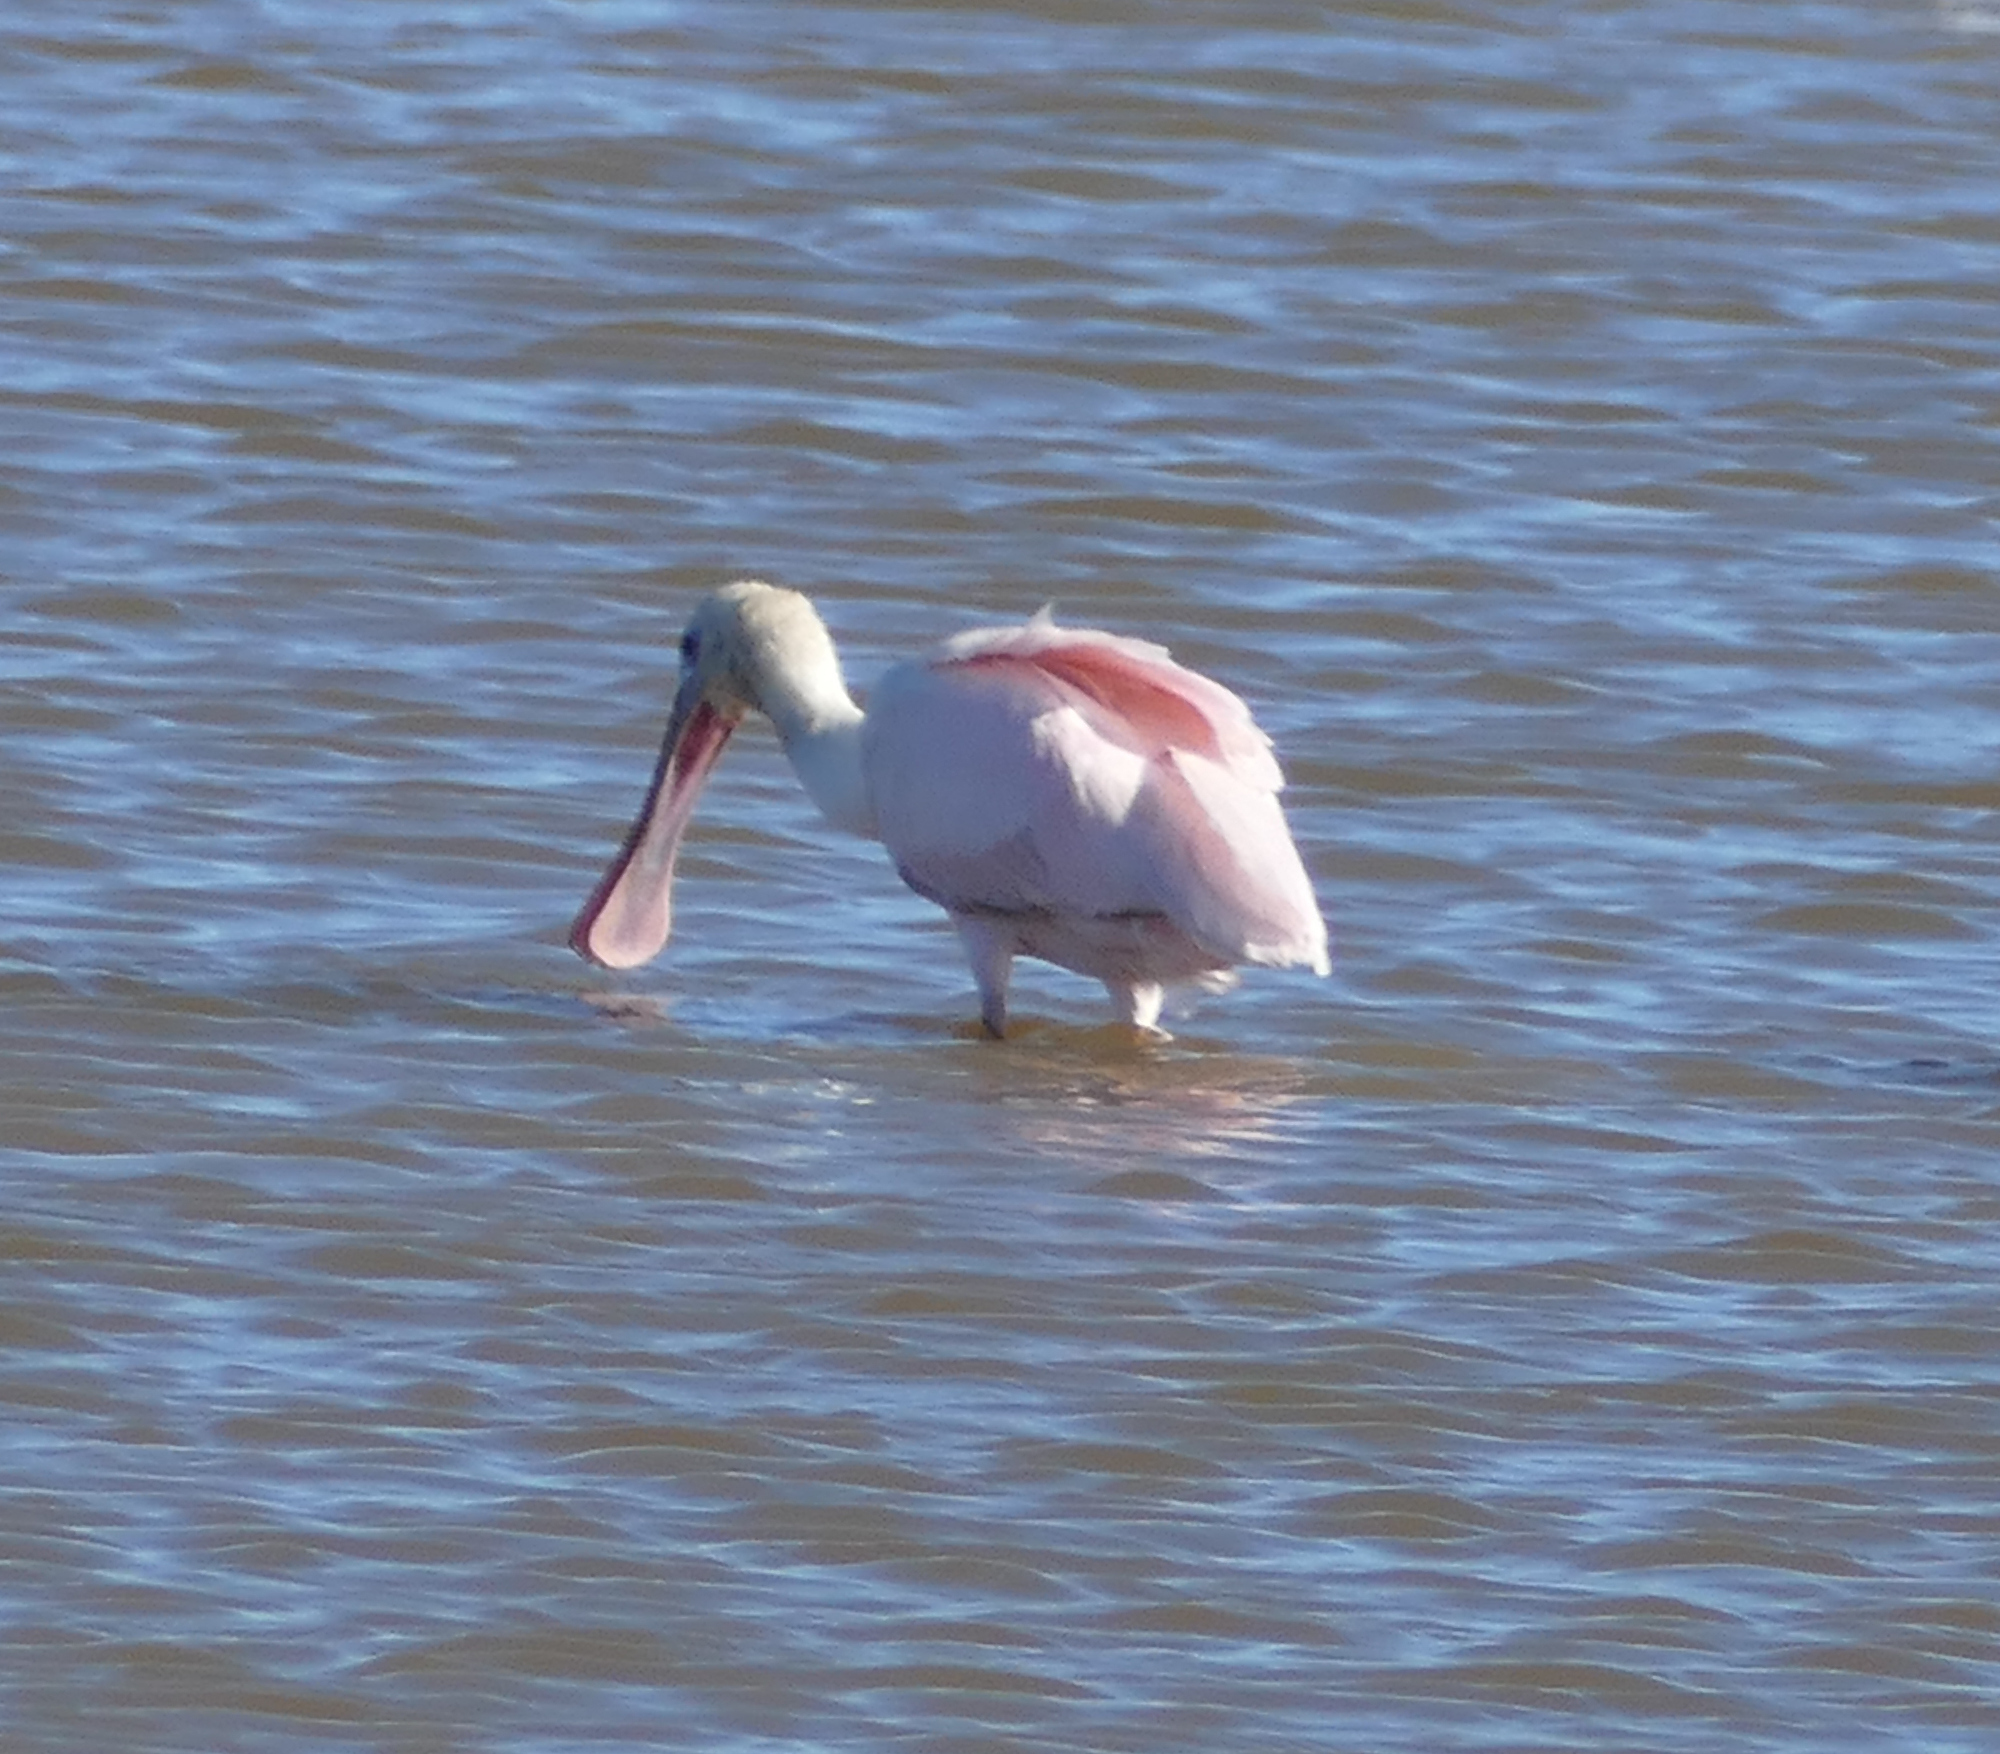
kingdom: Animalia
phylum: Chordata
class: Aves
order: Pelecaniformes
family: Threskiornithidae
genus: Platalea
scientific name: Platalea ajaja
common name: Roseate spoonbill
